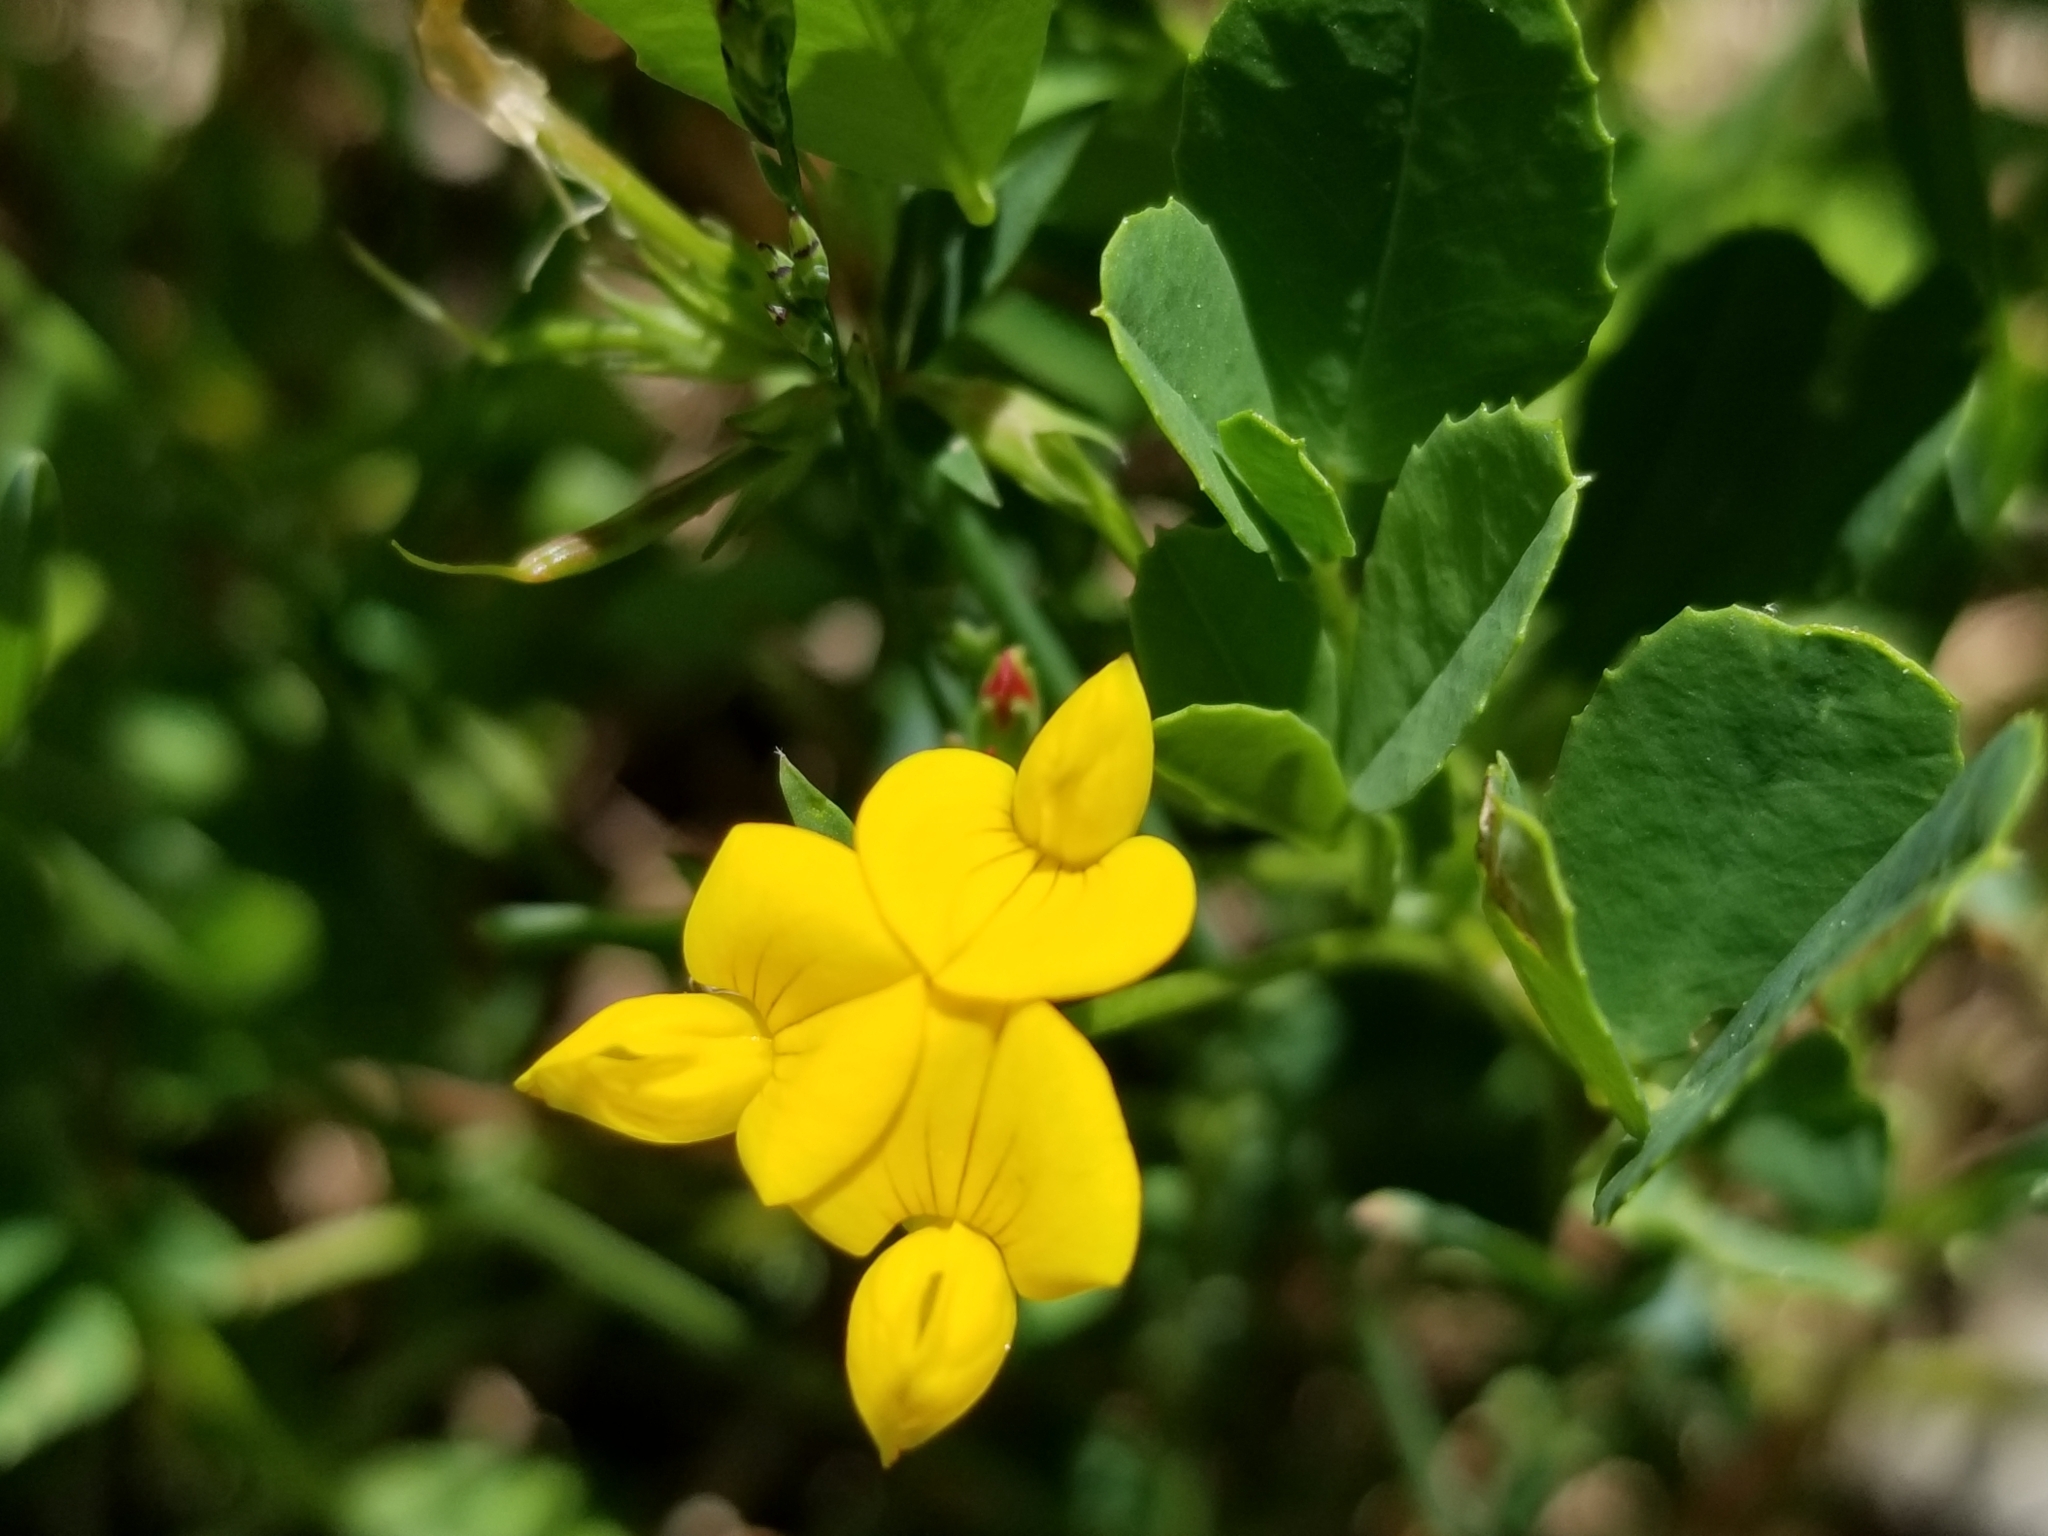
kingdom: Plantae
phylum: Tracheophyta
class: Magnoliopsida
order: Fabales
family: Fabaceae
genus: Lotus
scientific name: Lotus corniculatus
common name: Common bird's-foot-trefoil
